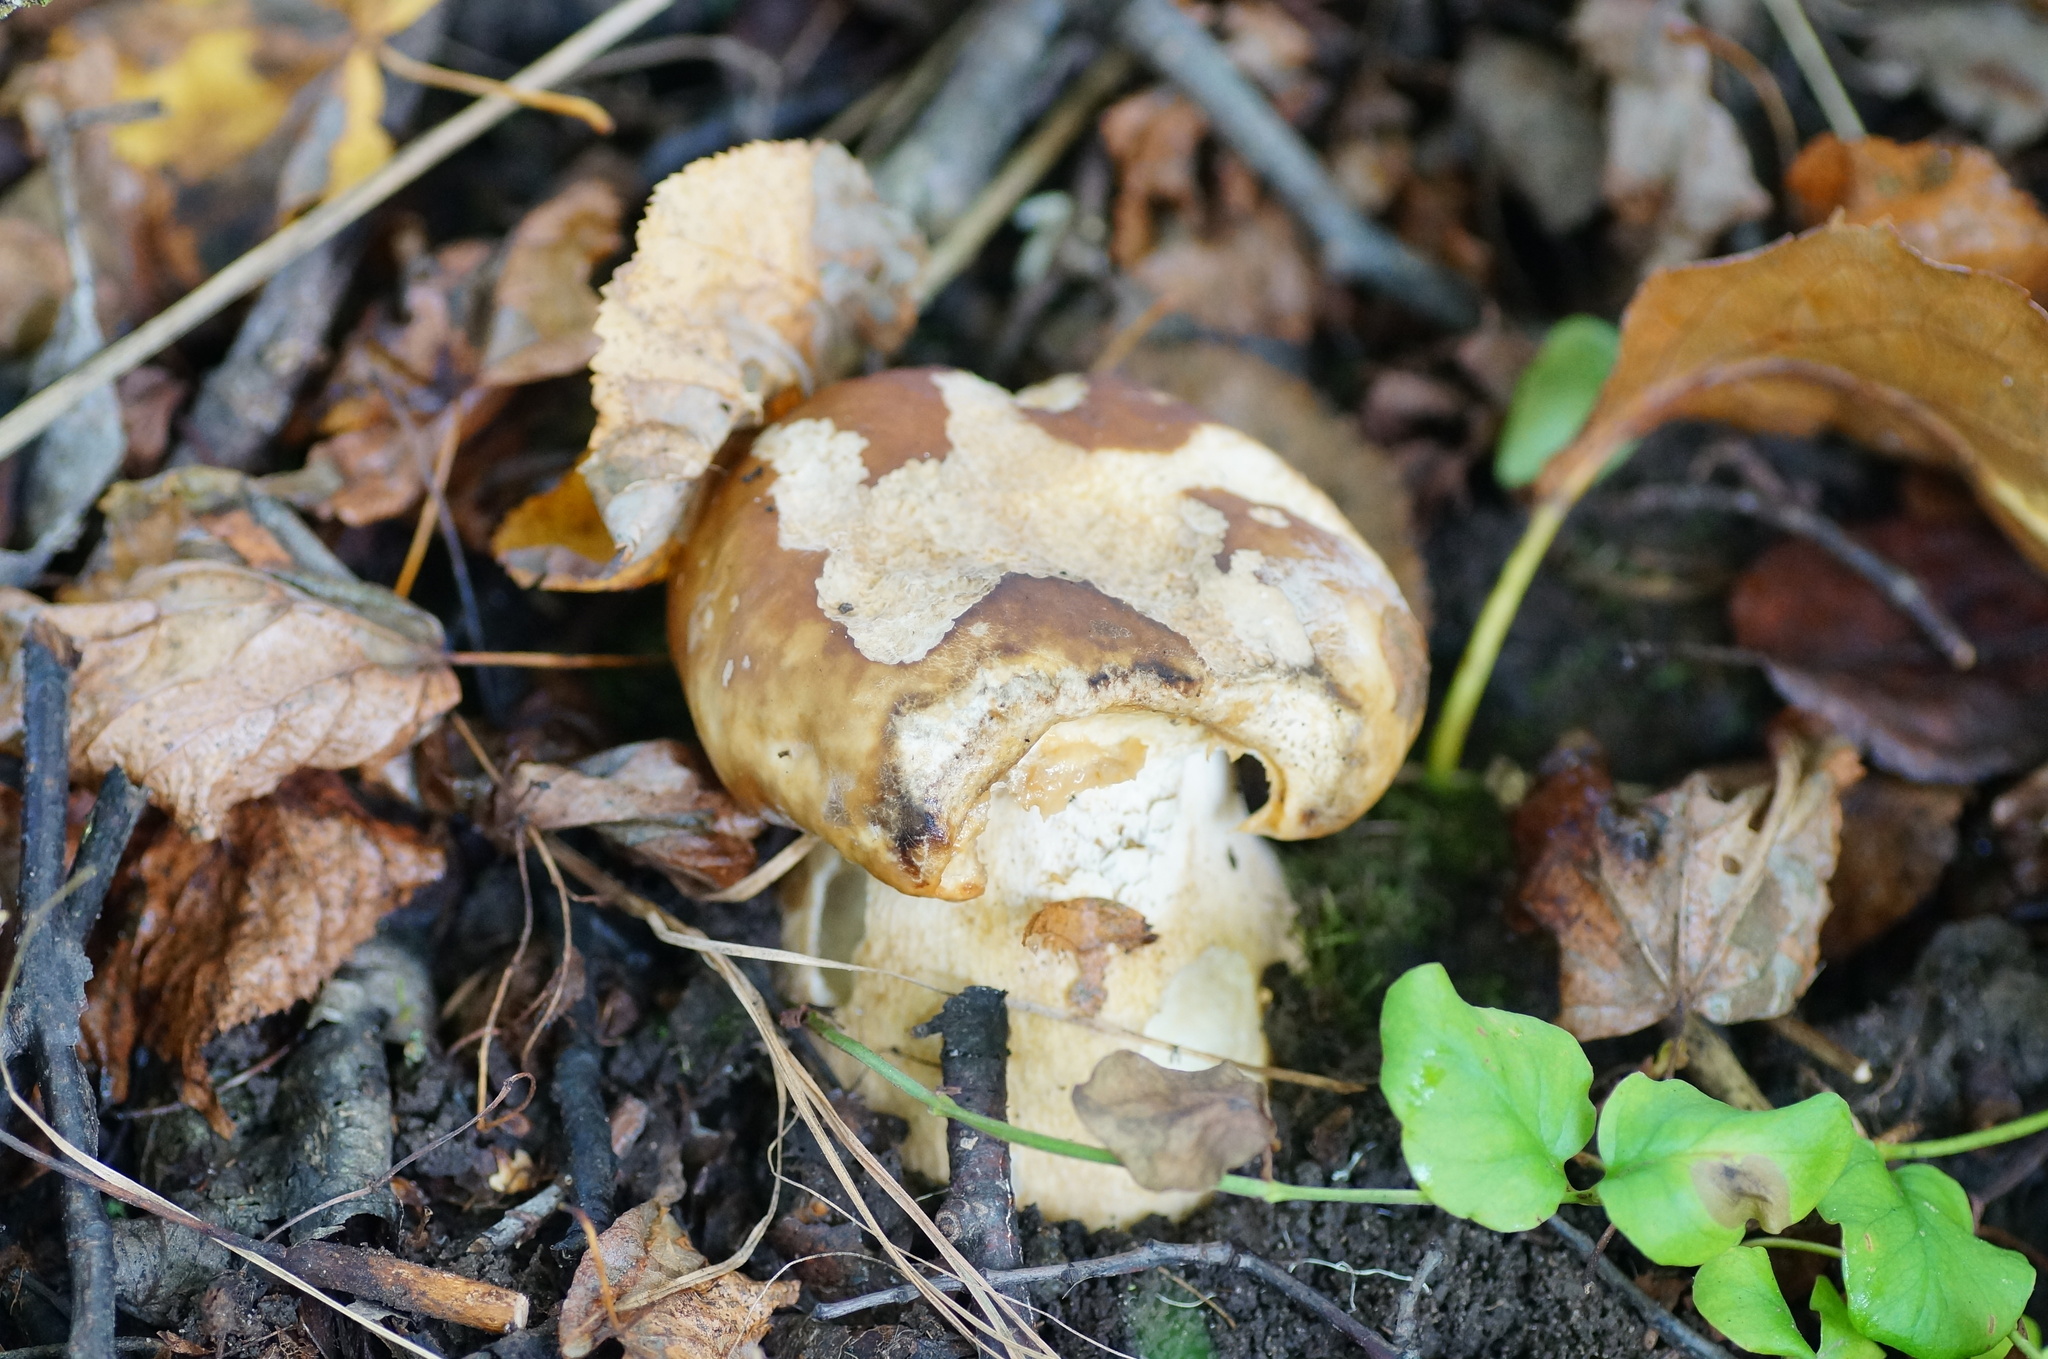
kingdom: Fungi
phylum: Basidiomycota
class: Agaricomycetes
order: Boletales
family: Boletaceae
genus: Boletus
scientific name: Boletus reticulatus
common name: Summer bolete
